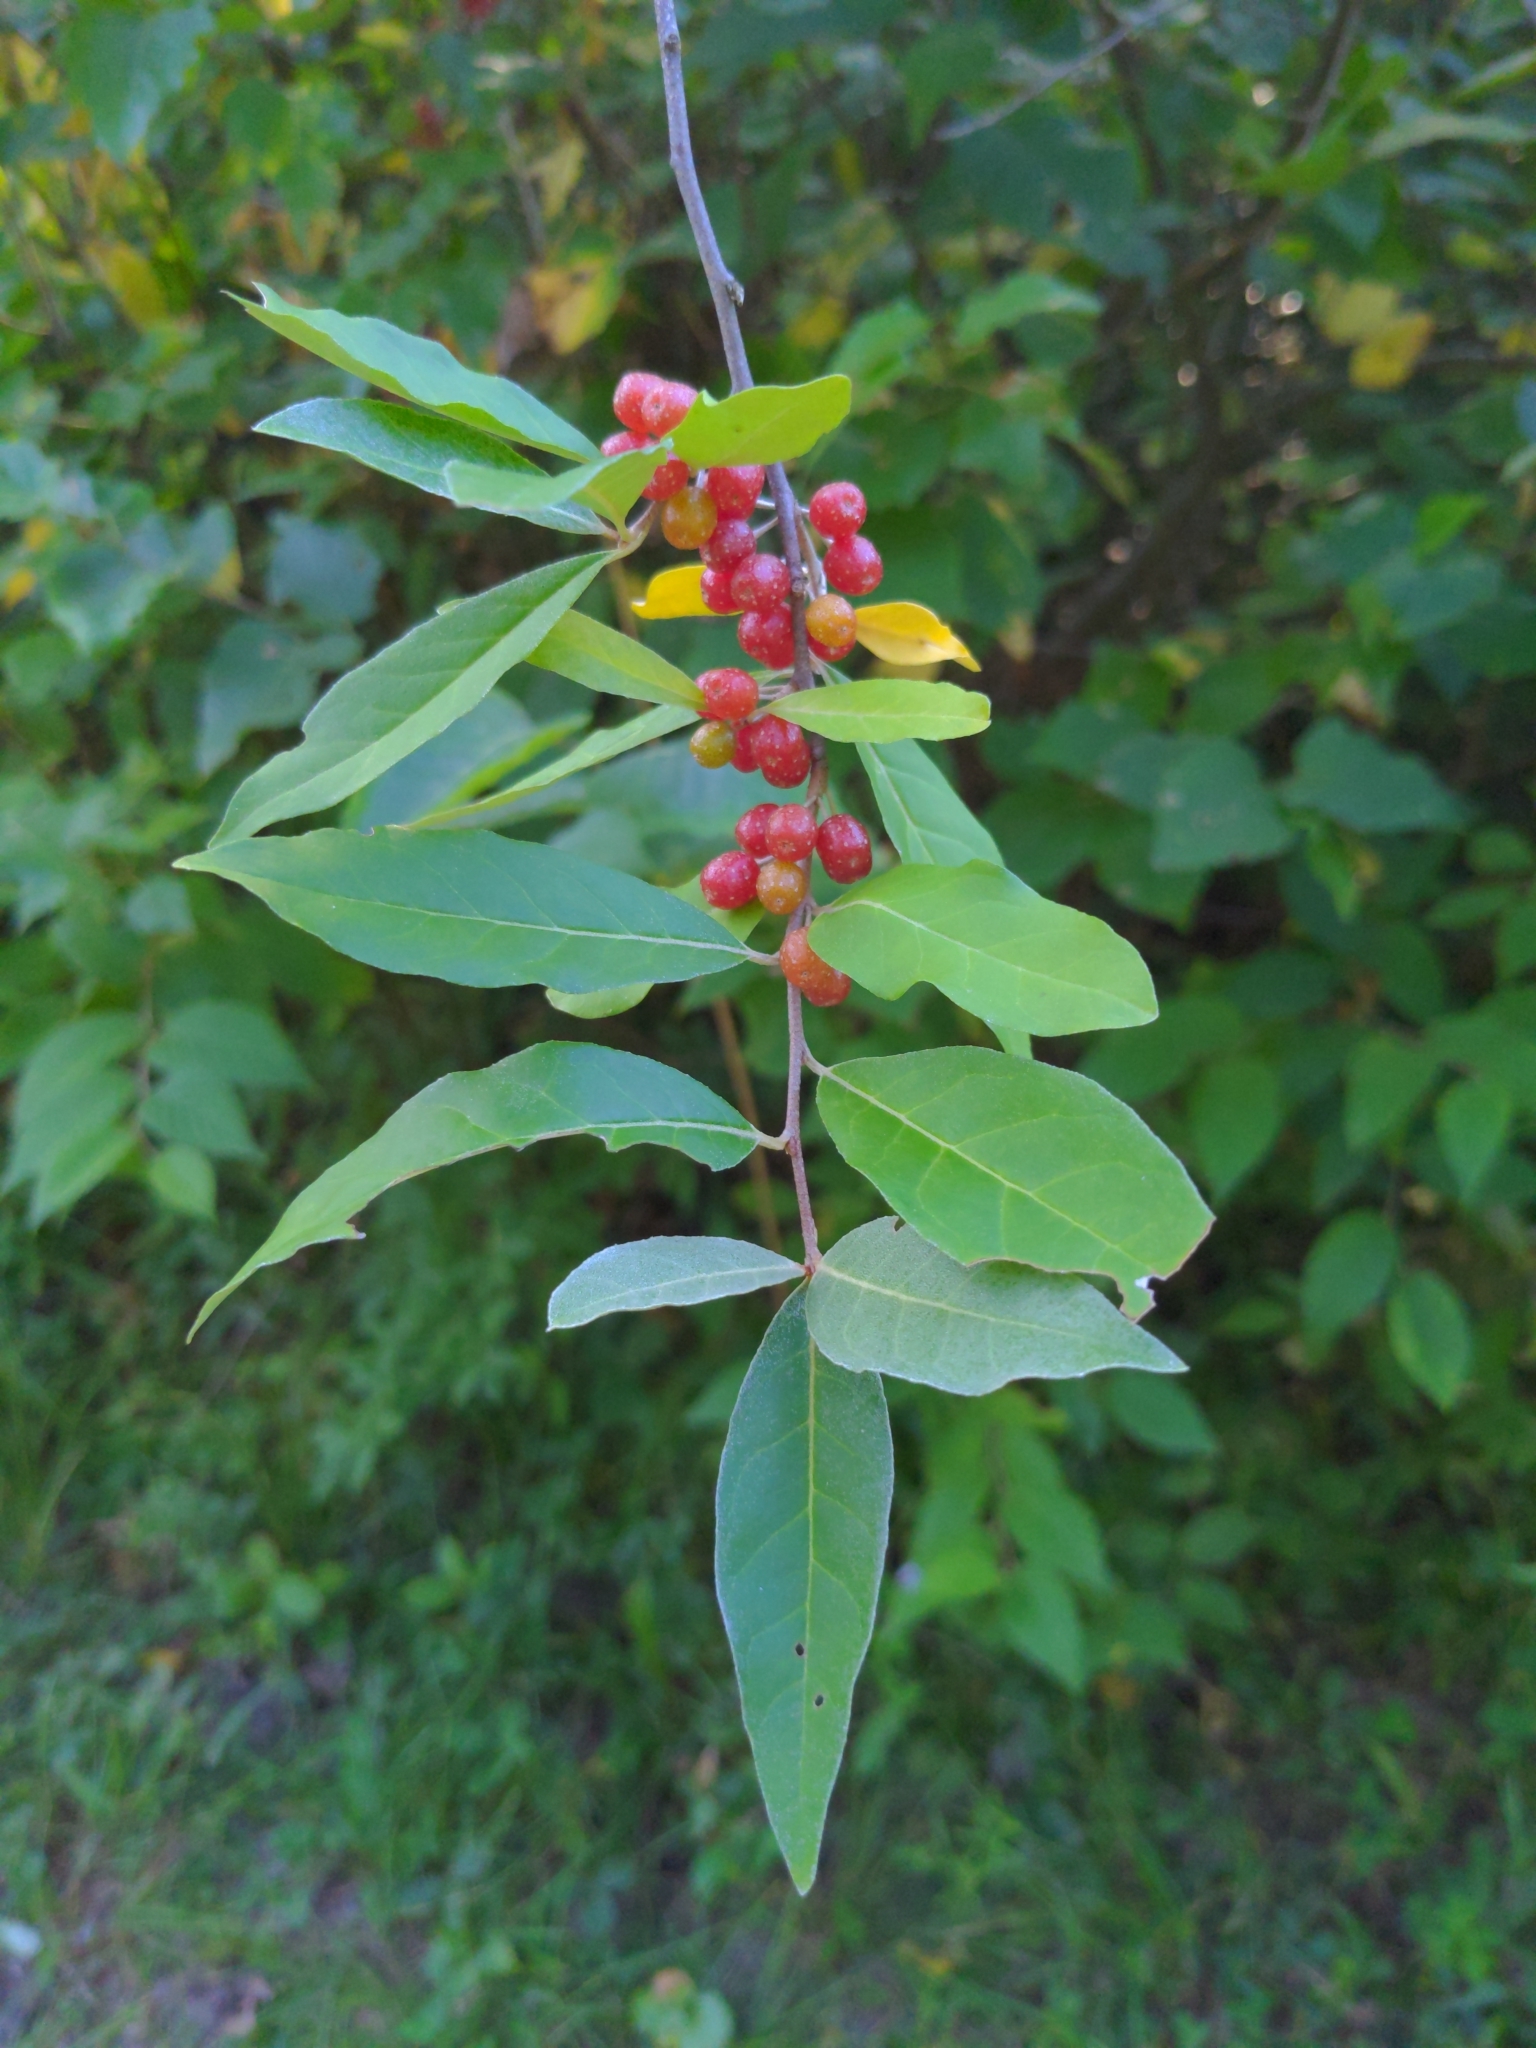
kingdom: Plantae
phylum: Tracheophyta
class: Magnoliopsida
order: Rosales
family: Elaeagnaceae
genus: Elaeagnus
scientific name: Elaeagnus umbellata
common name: Autumn olive
